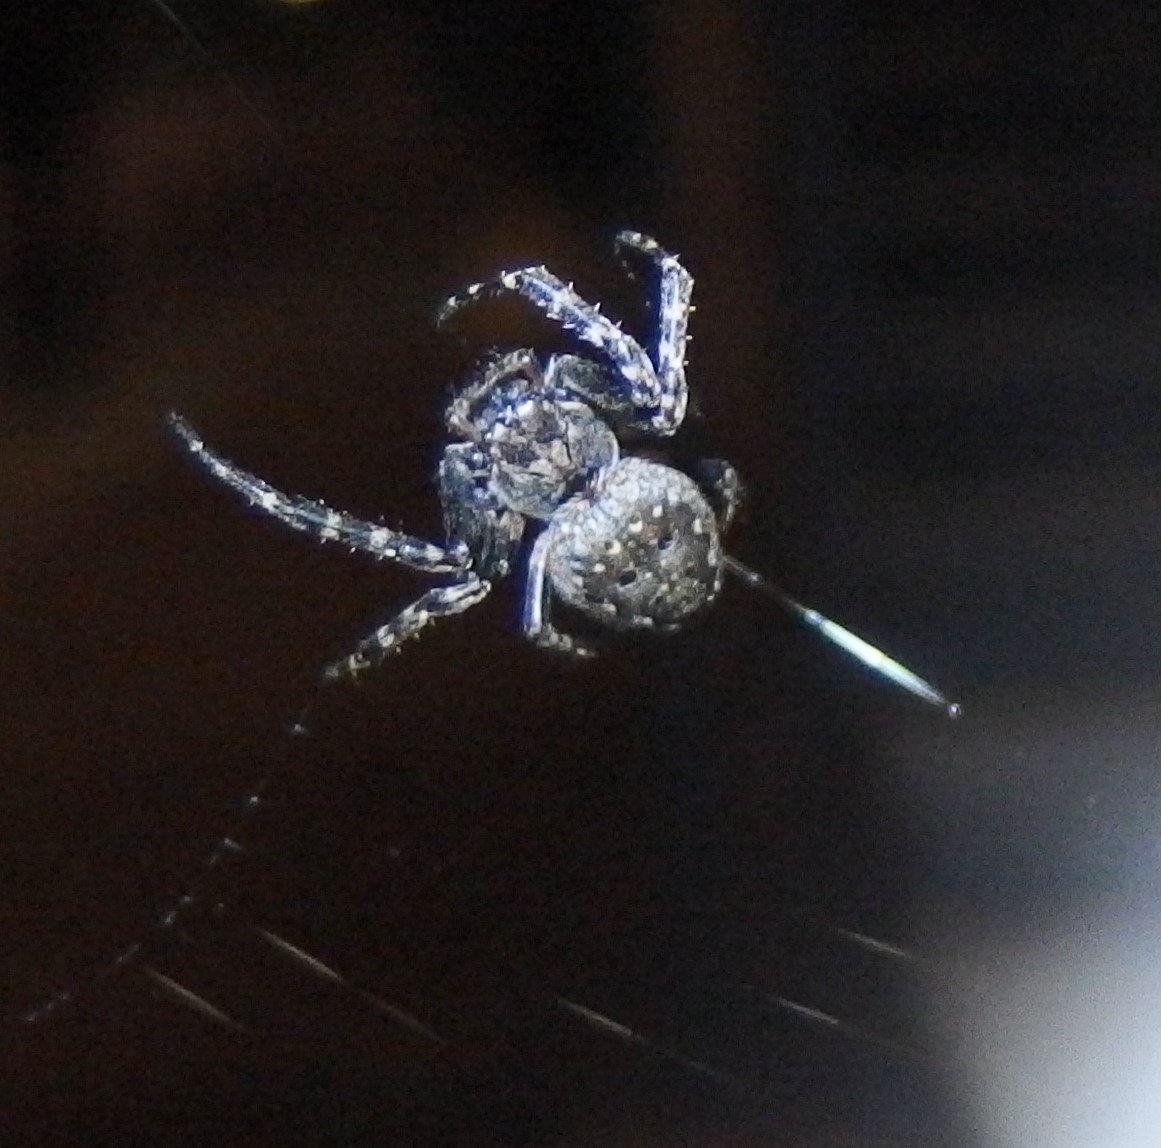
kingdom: Animalia
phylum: Arthropoda
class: Arachnida
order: Araneae
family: Araneidae
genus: Nuctenea
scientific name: Nuctenea umbratica
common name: Toad spider
